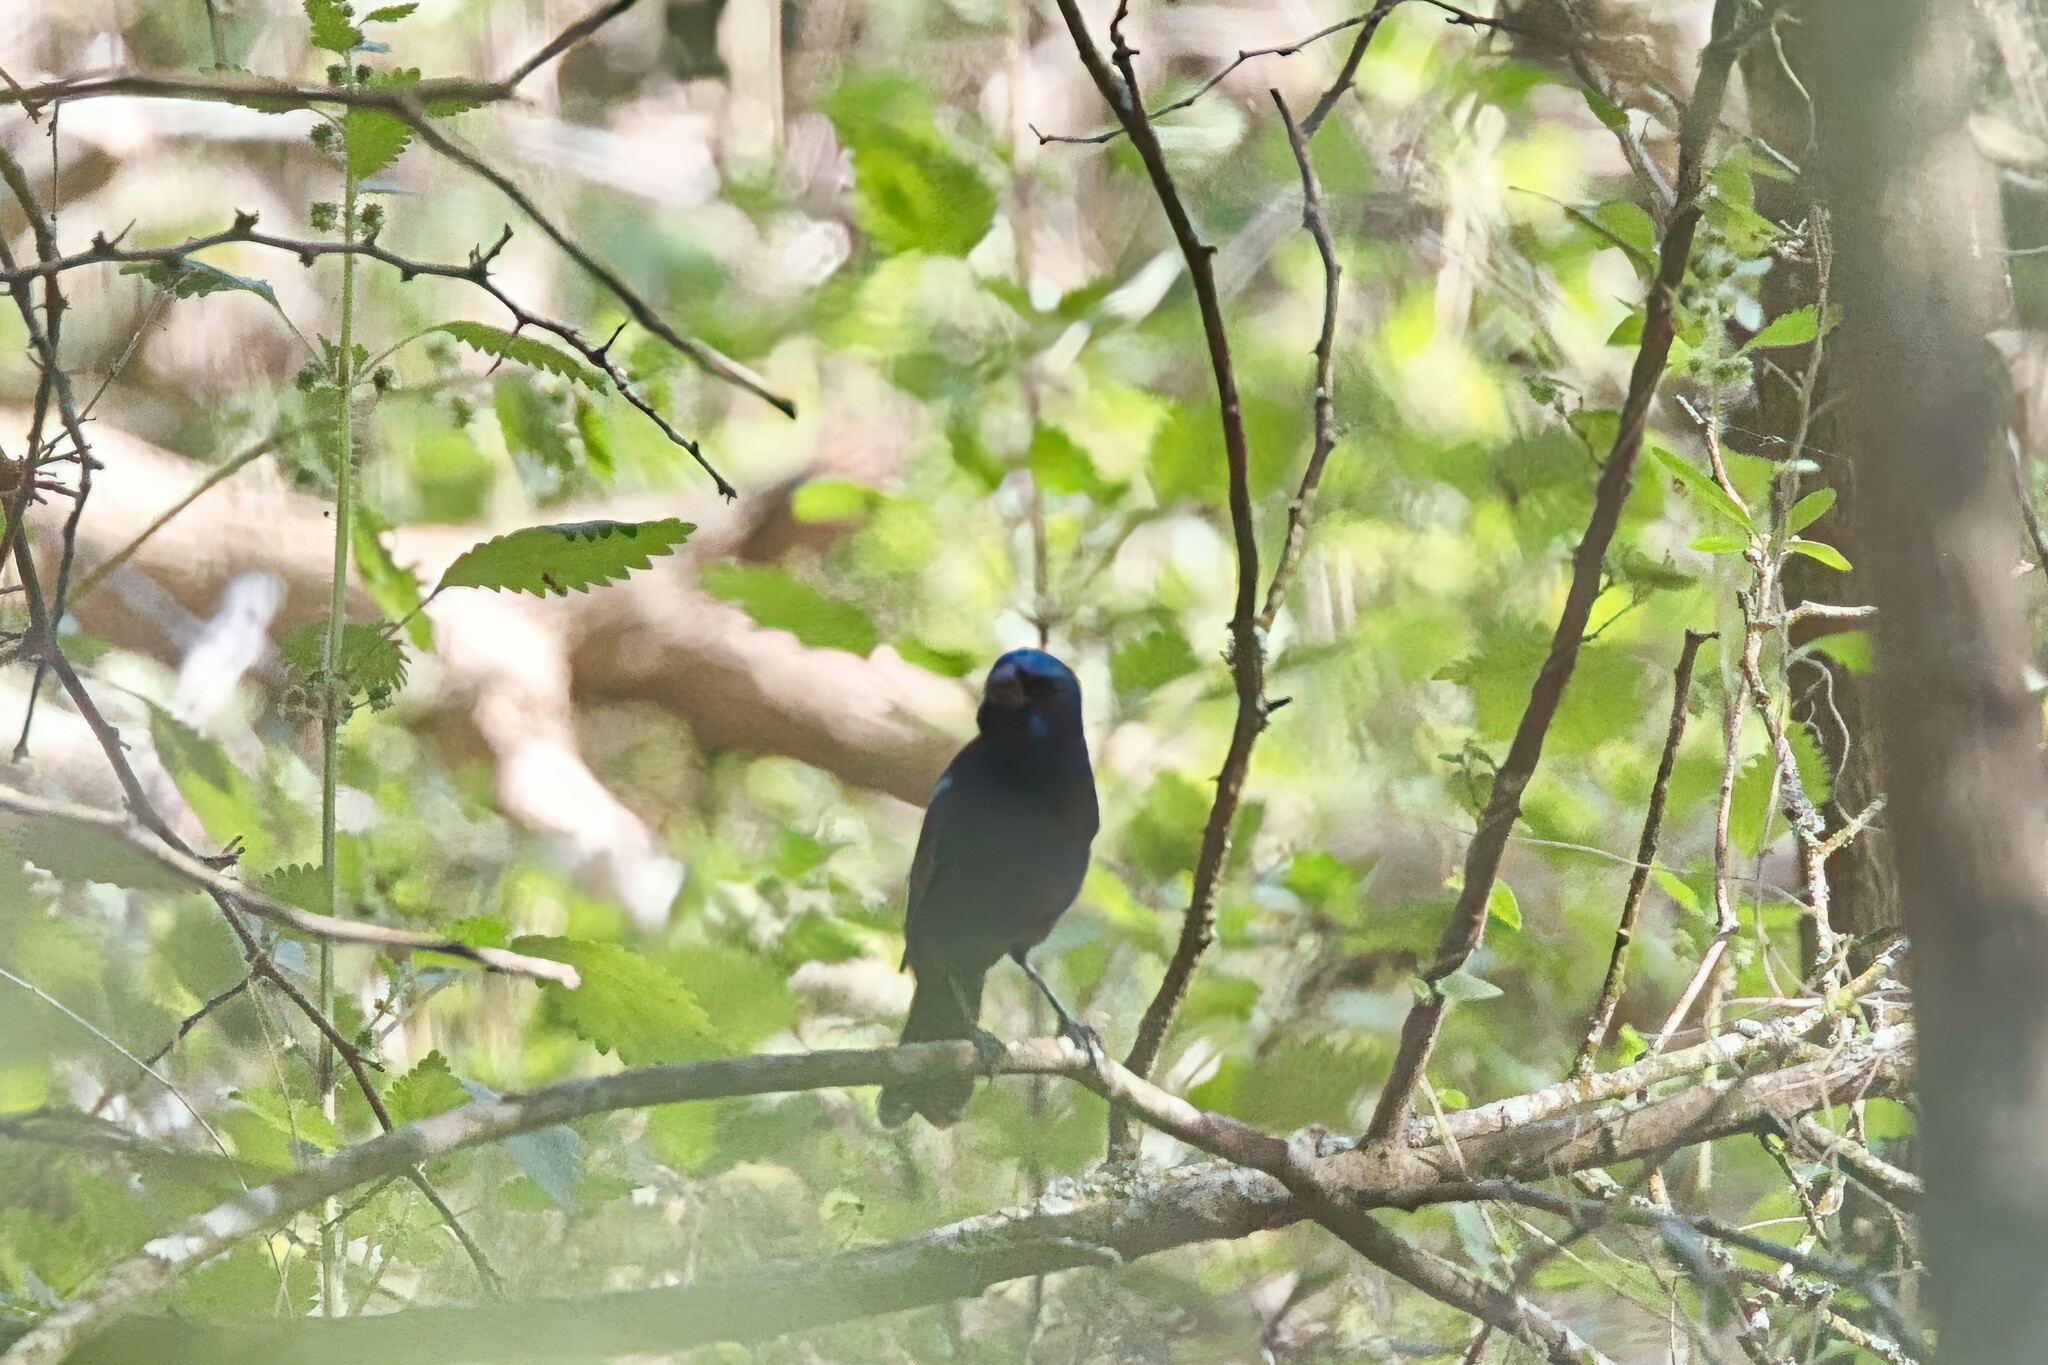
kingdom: Animalia
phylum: Chordata
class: Aves
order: Passeriformes
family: Cardinalidae
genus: Cyanocompsa
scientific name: Cyanocompsa parellina
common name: Blue bunting
